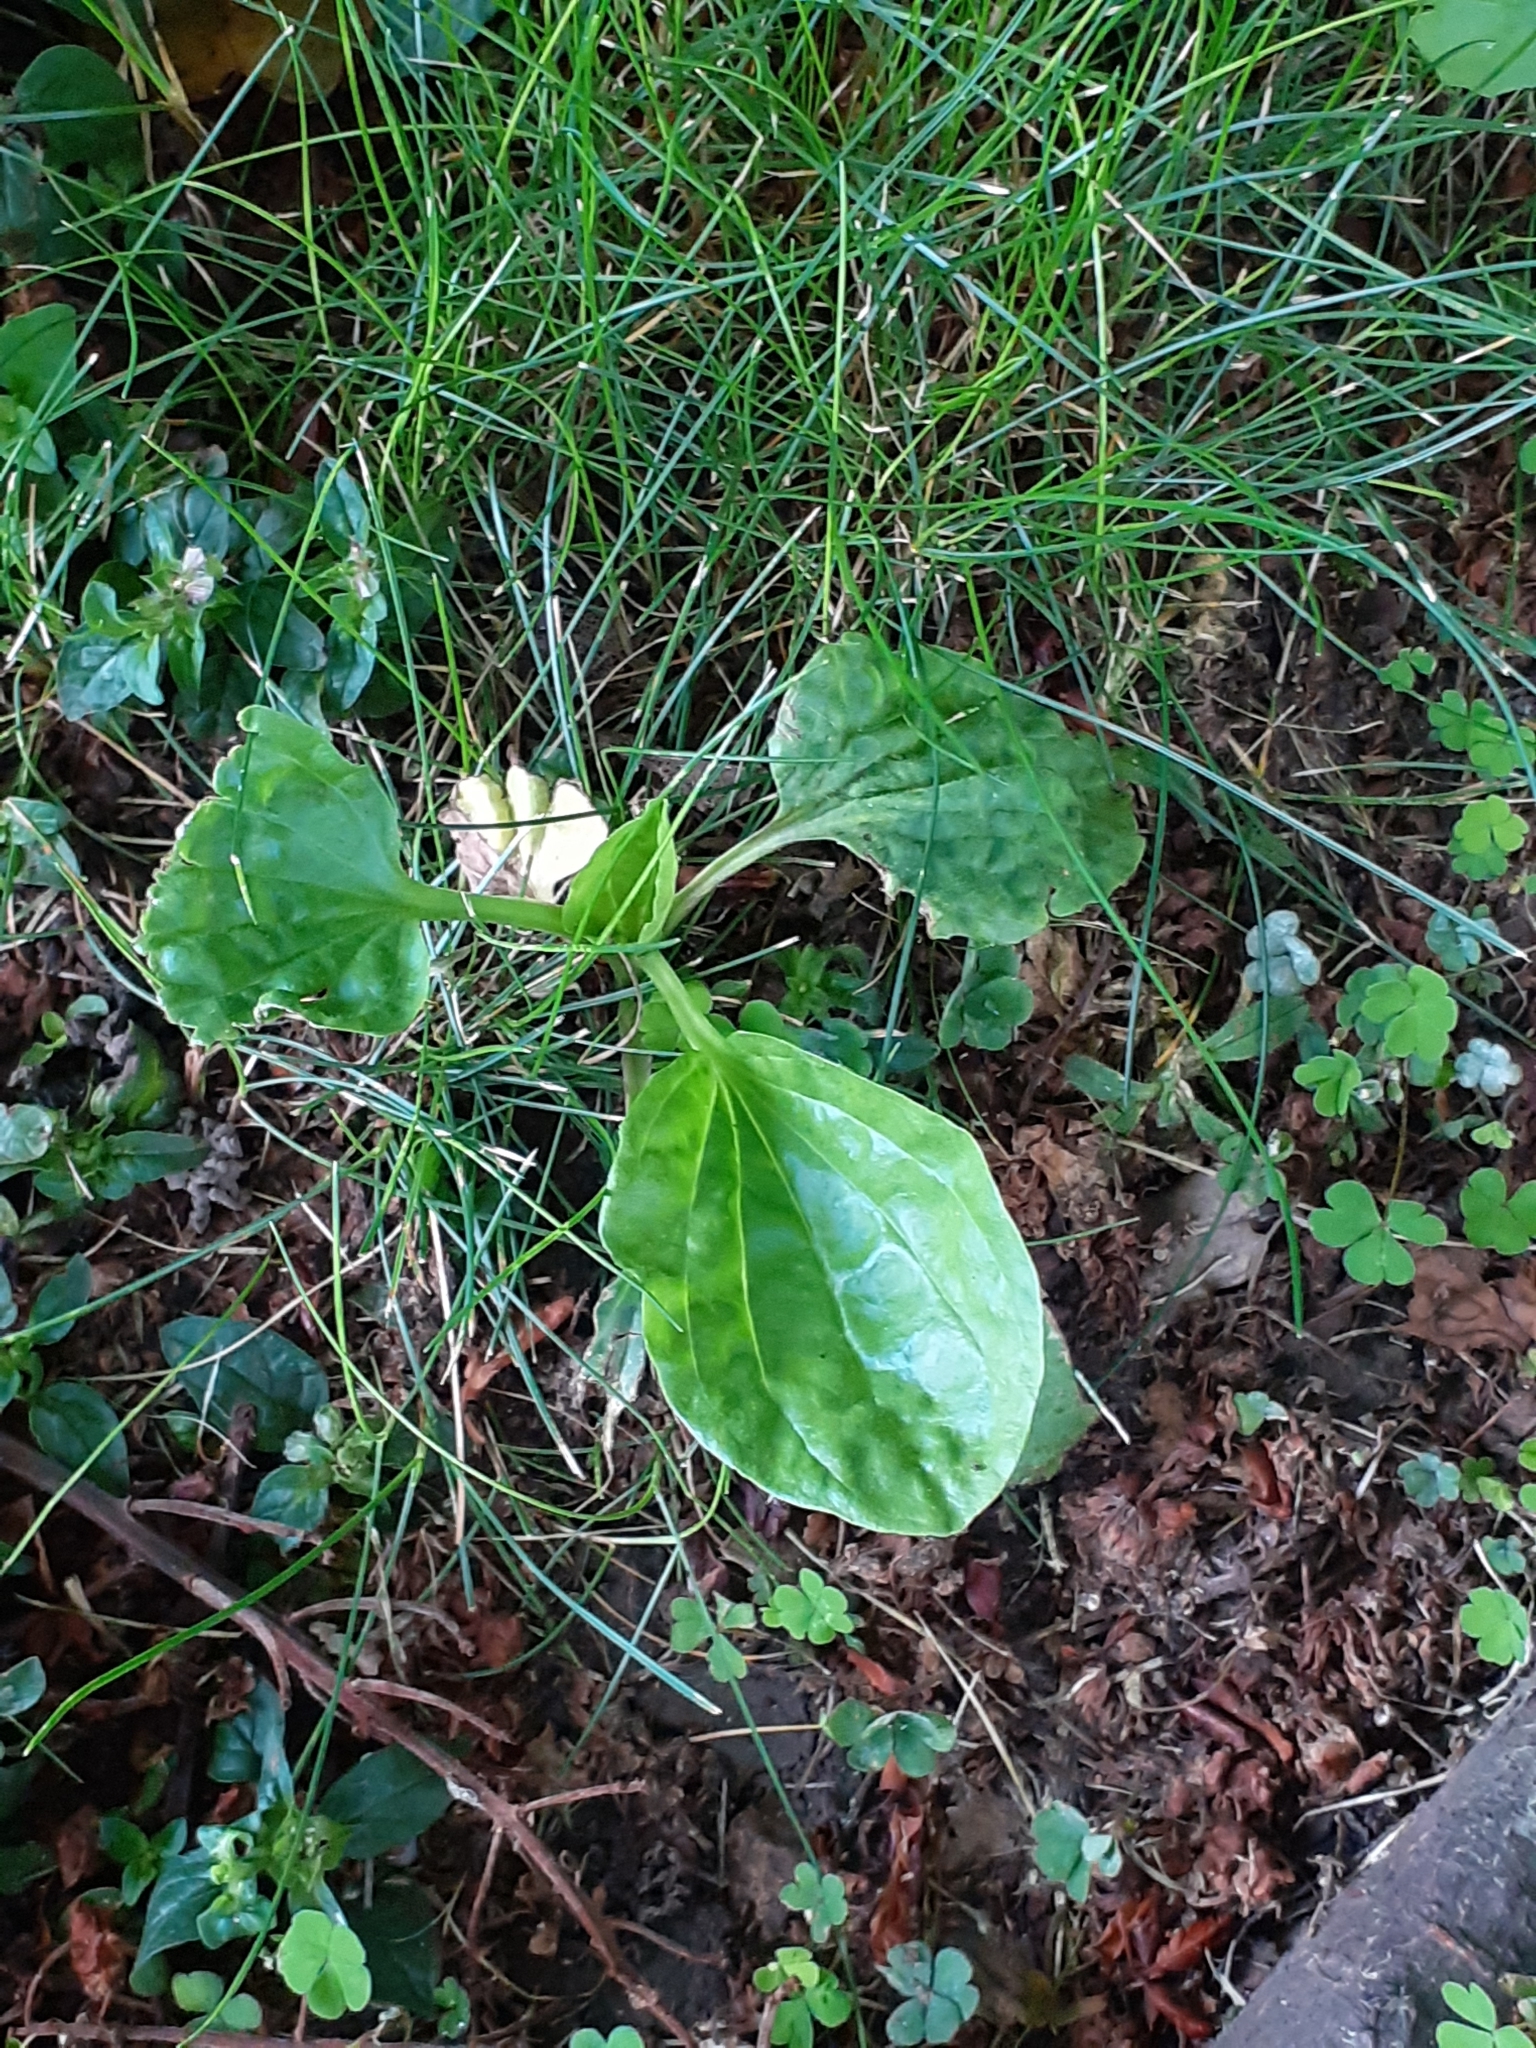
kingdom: Plantae
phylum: Tracheophyta
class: Magnoliopsida
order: Lamiales
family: Plantaginaceae
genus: Plantago
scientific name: Plantago major
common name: Common plantain
